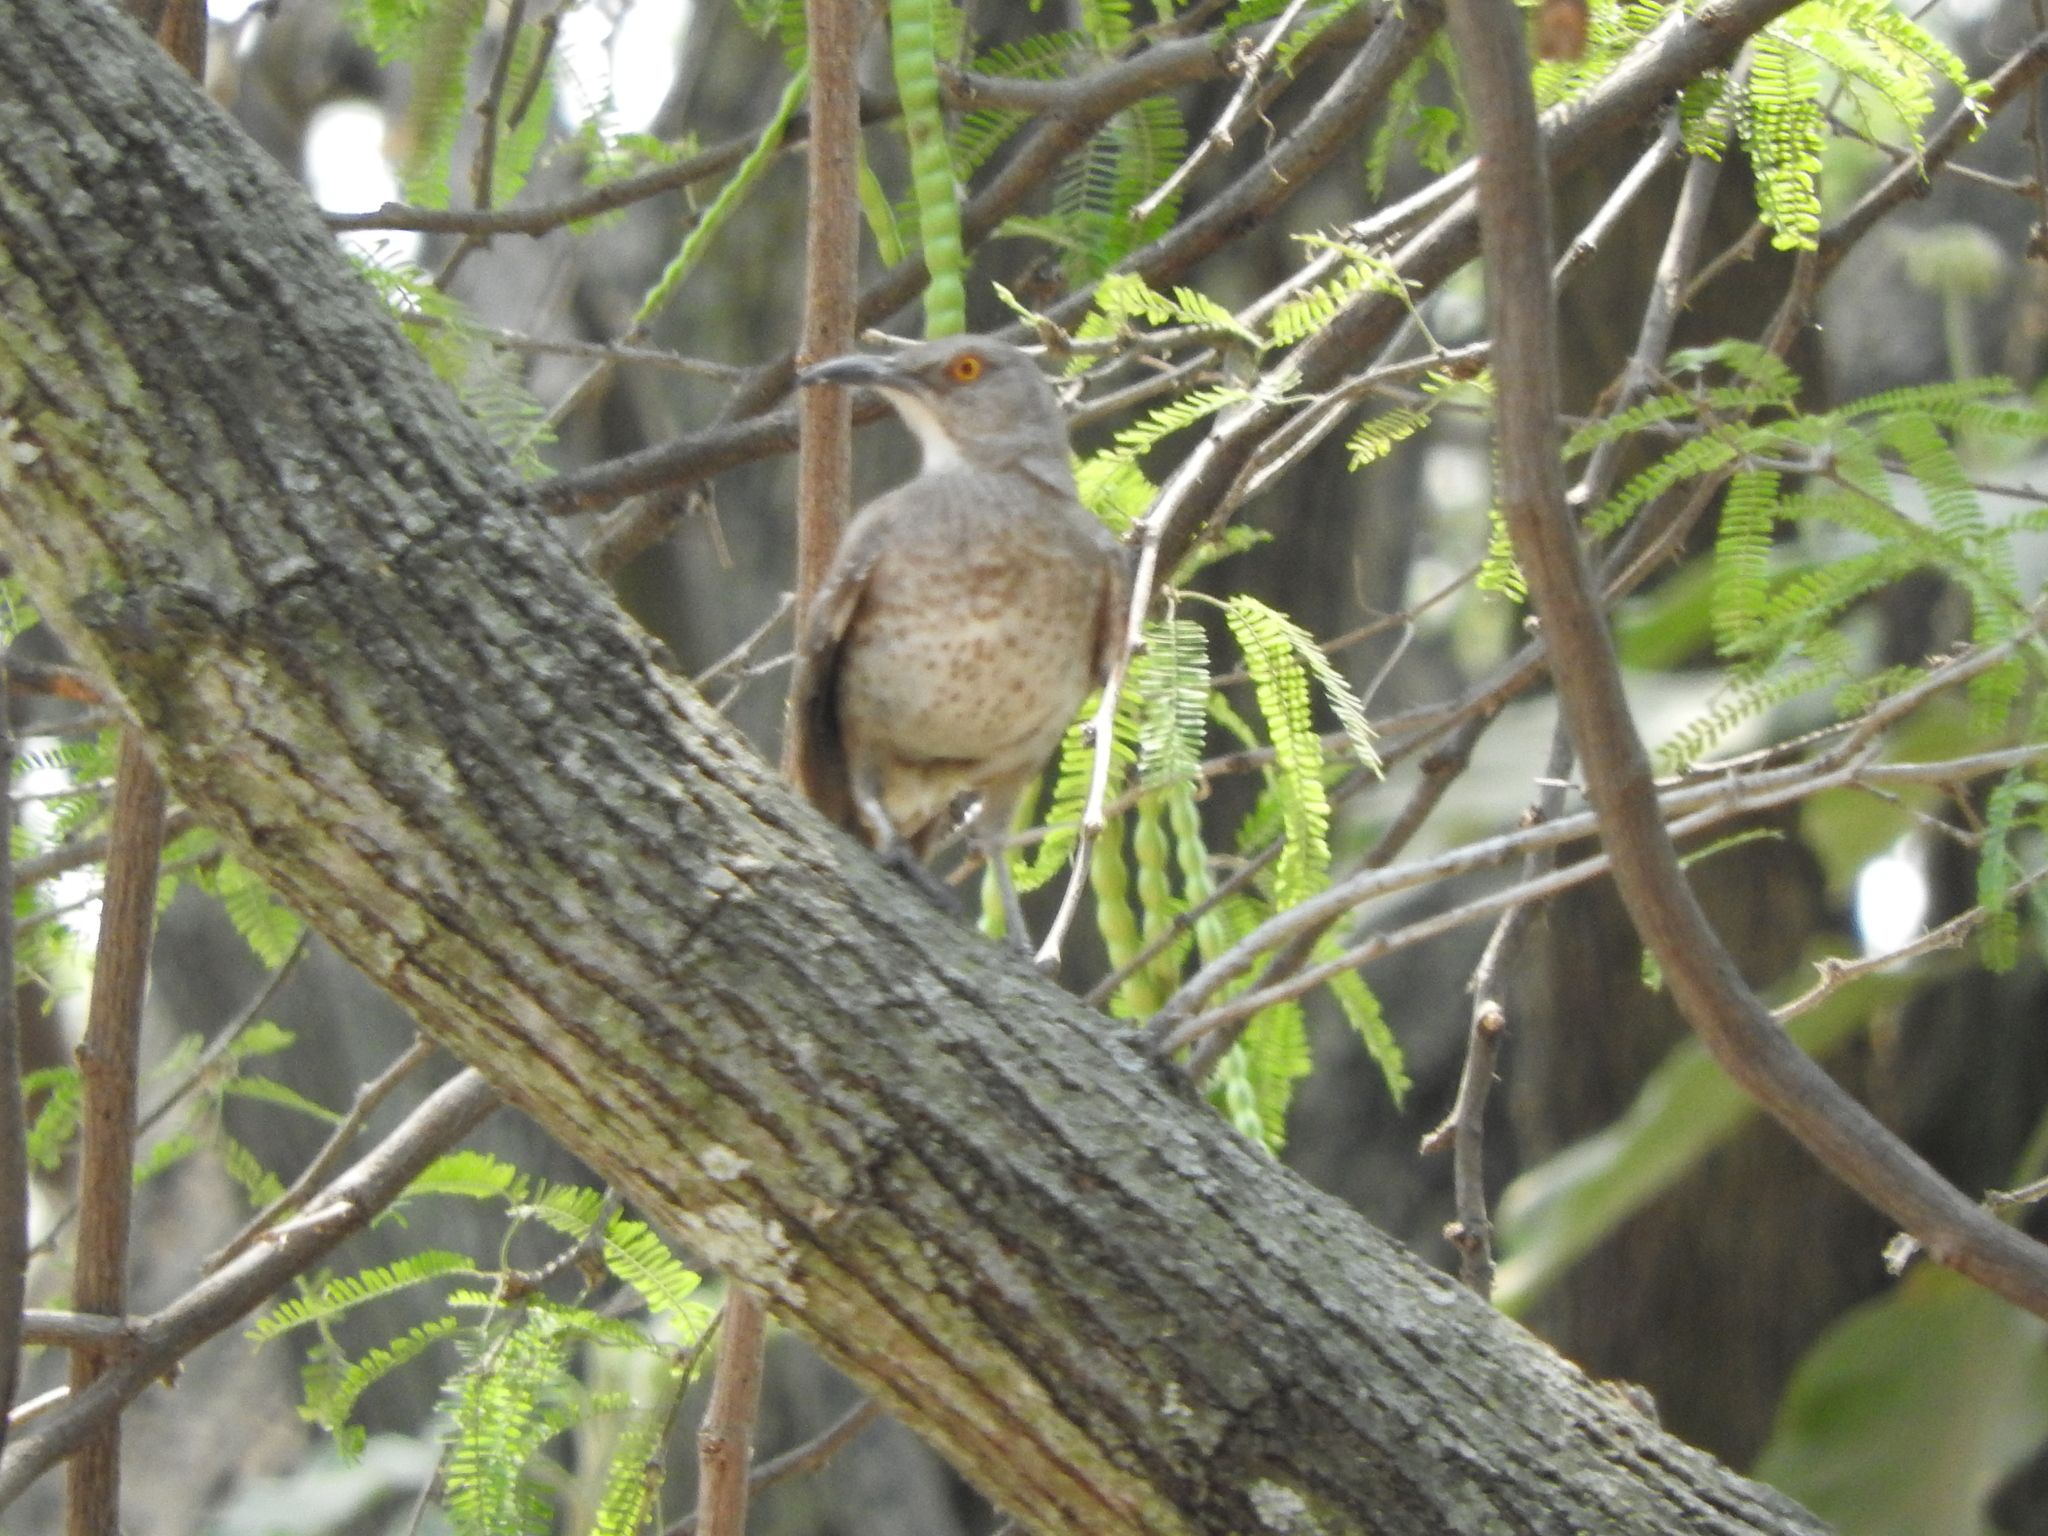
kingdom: Animalia
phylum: Chordata
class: Aves
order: Passeriformes
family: Mimidae
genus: Toxostoma
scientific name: Toxostoma curvirostre
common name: Curve-billed thrasher
